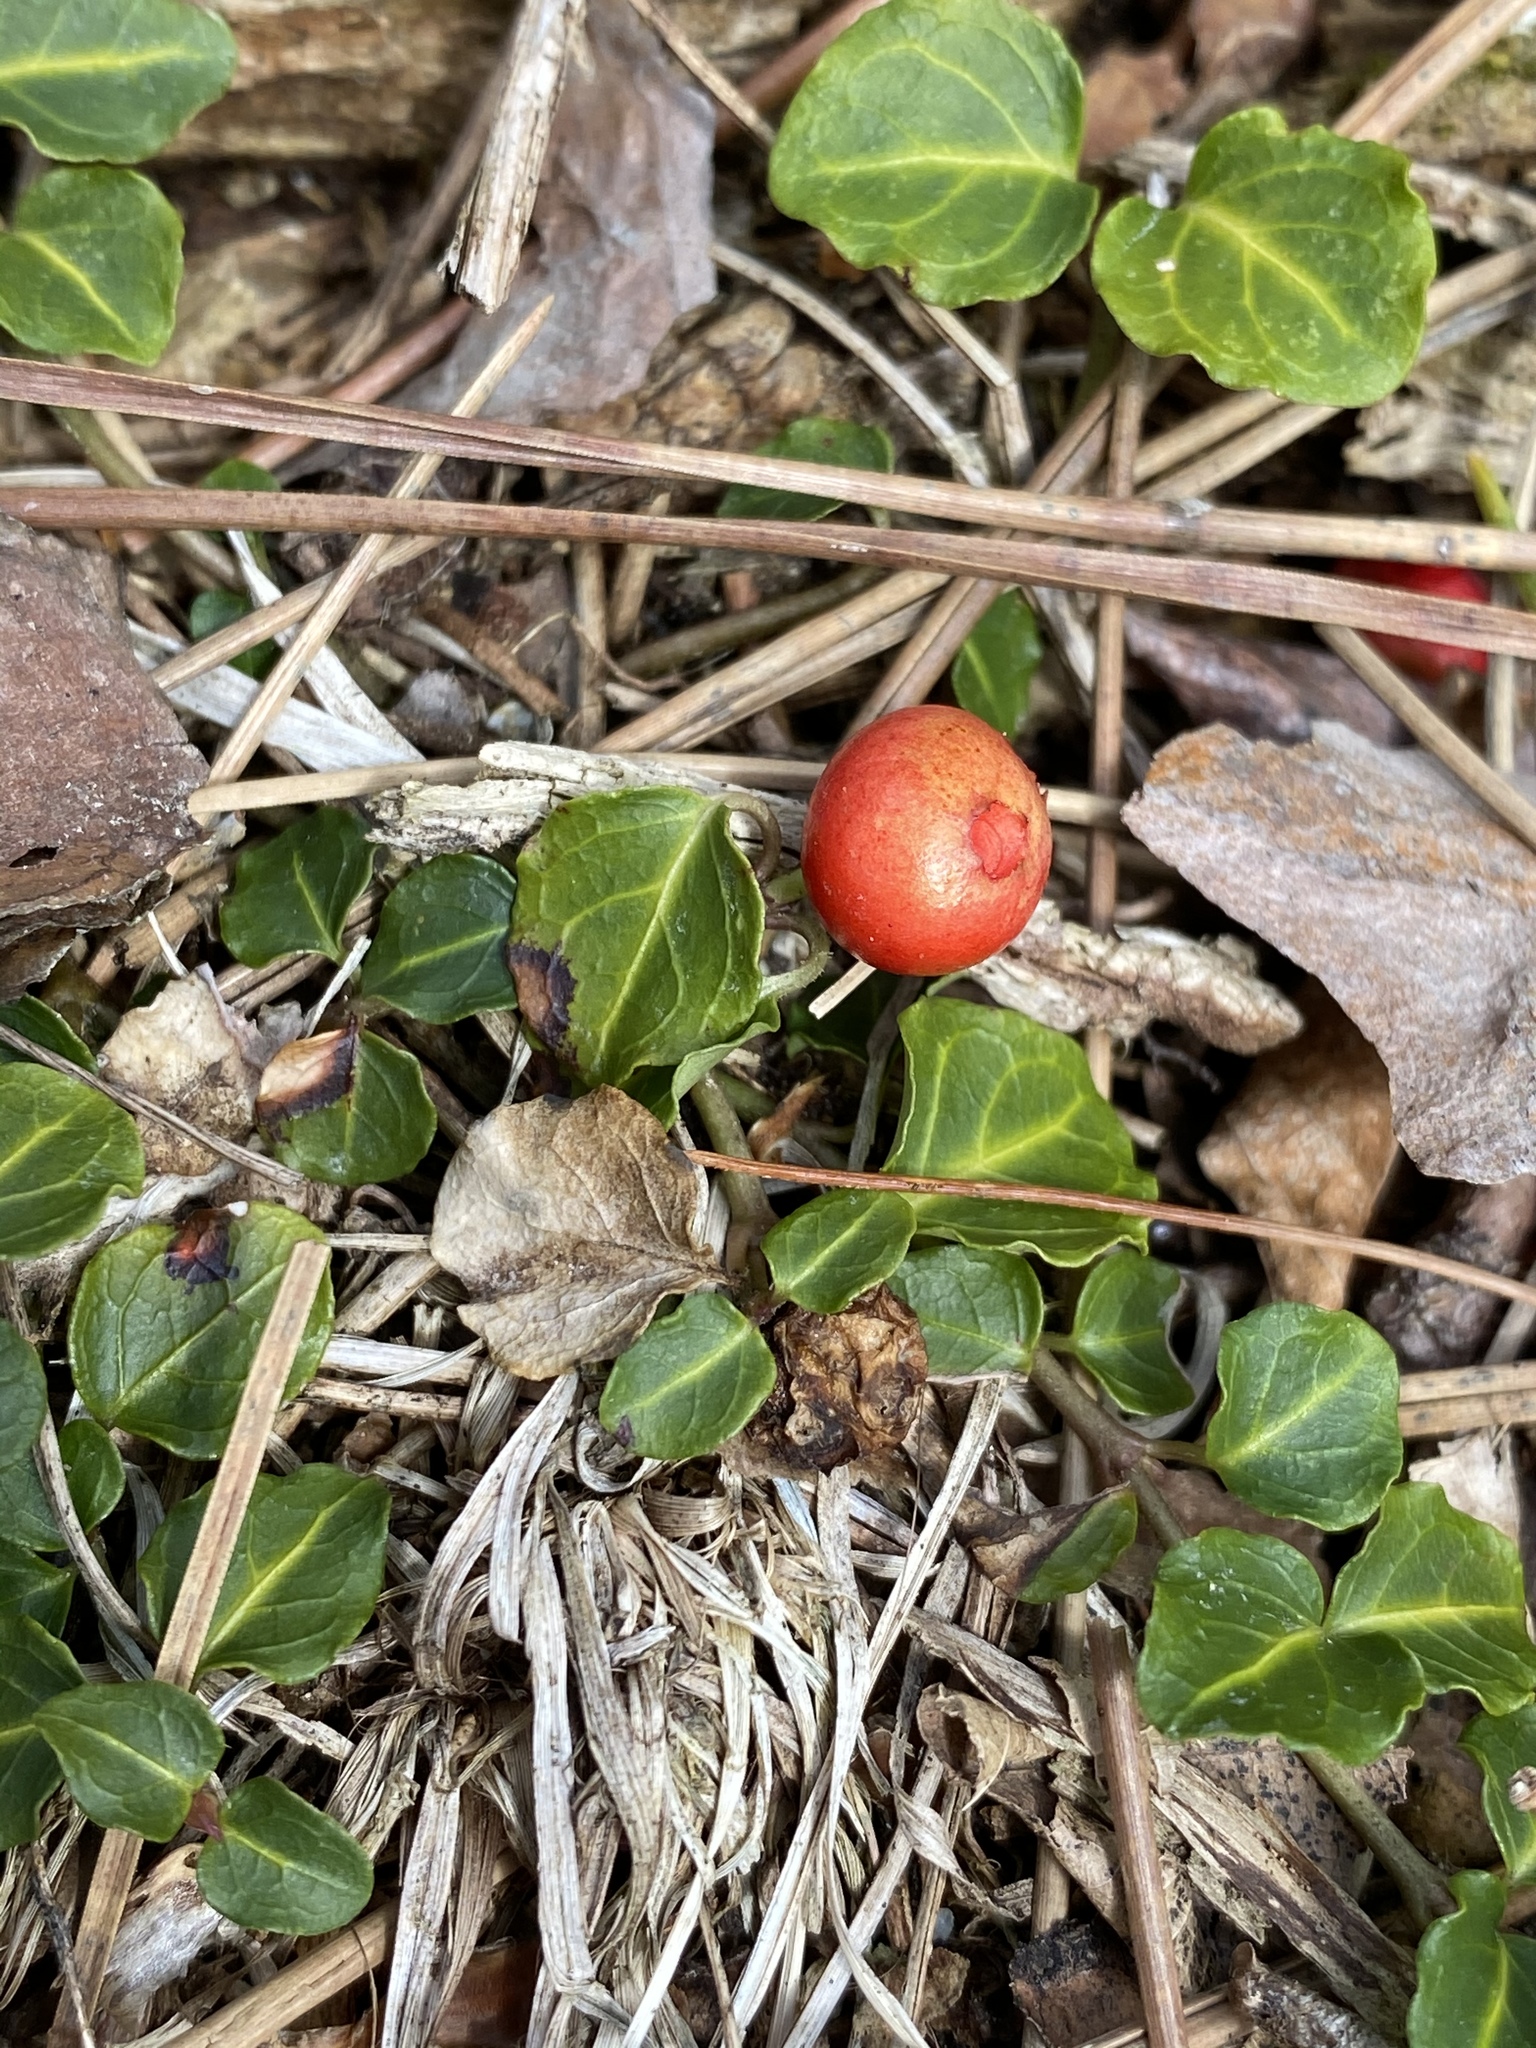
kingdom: Plantae
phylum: Tracheophyta
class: Magnoliopsida
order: Gentianales
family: Rubiaceae
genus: Mitchella
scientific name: Mitchella repens
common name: Partridge-berry
